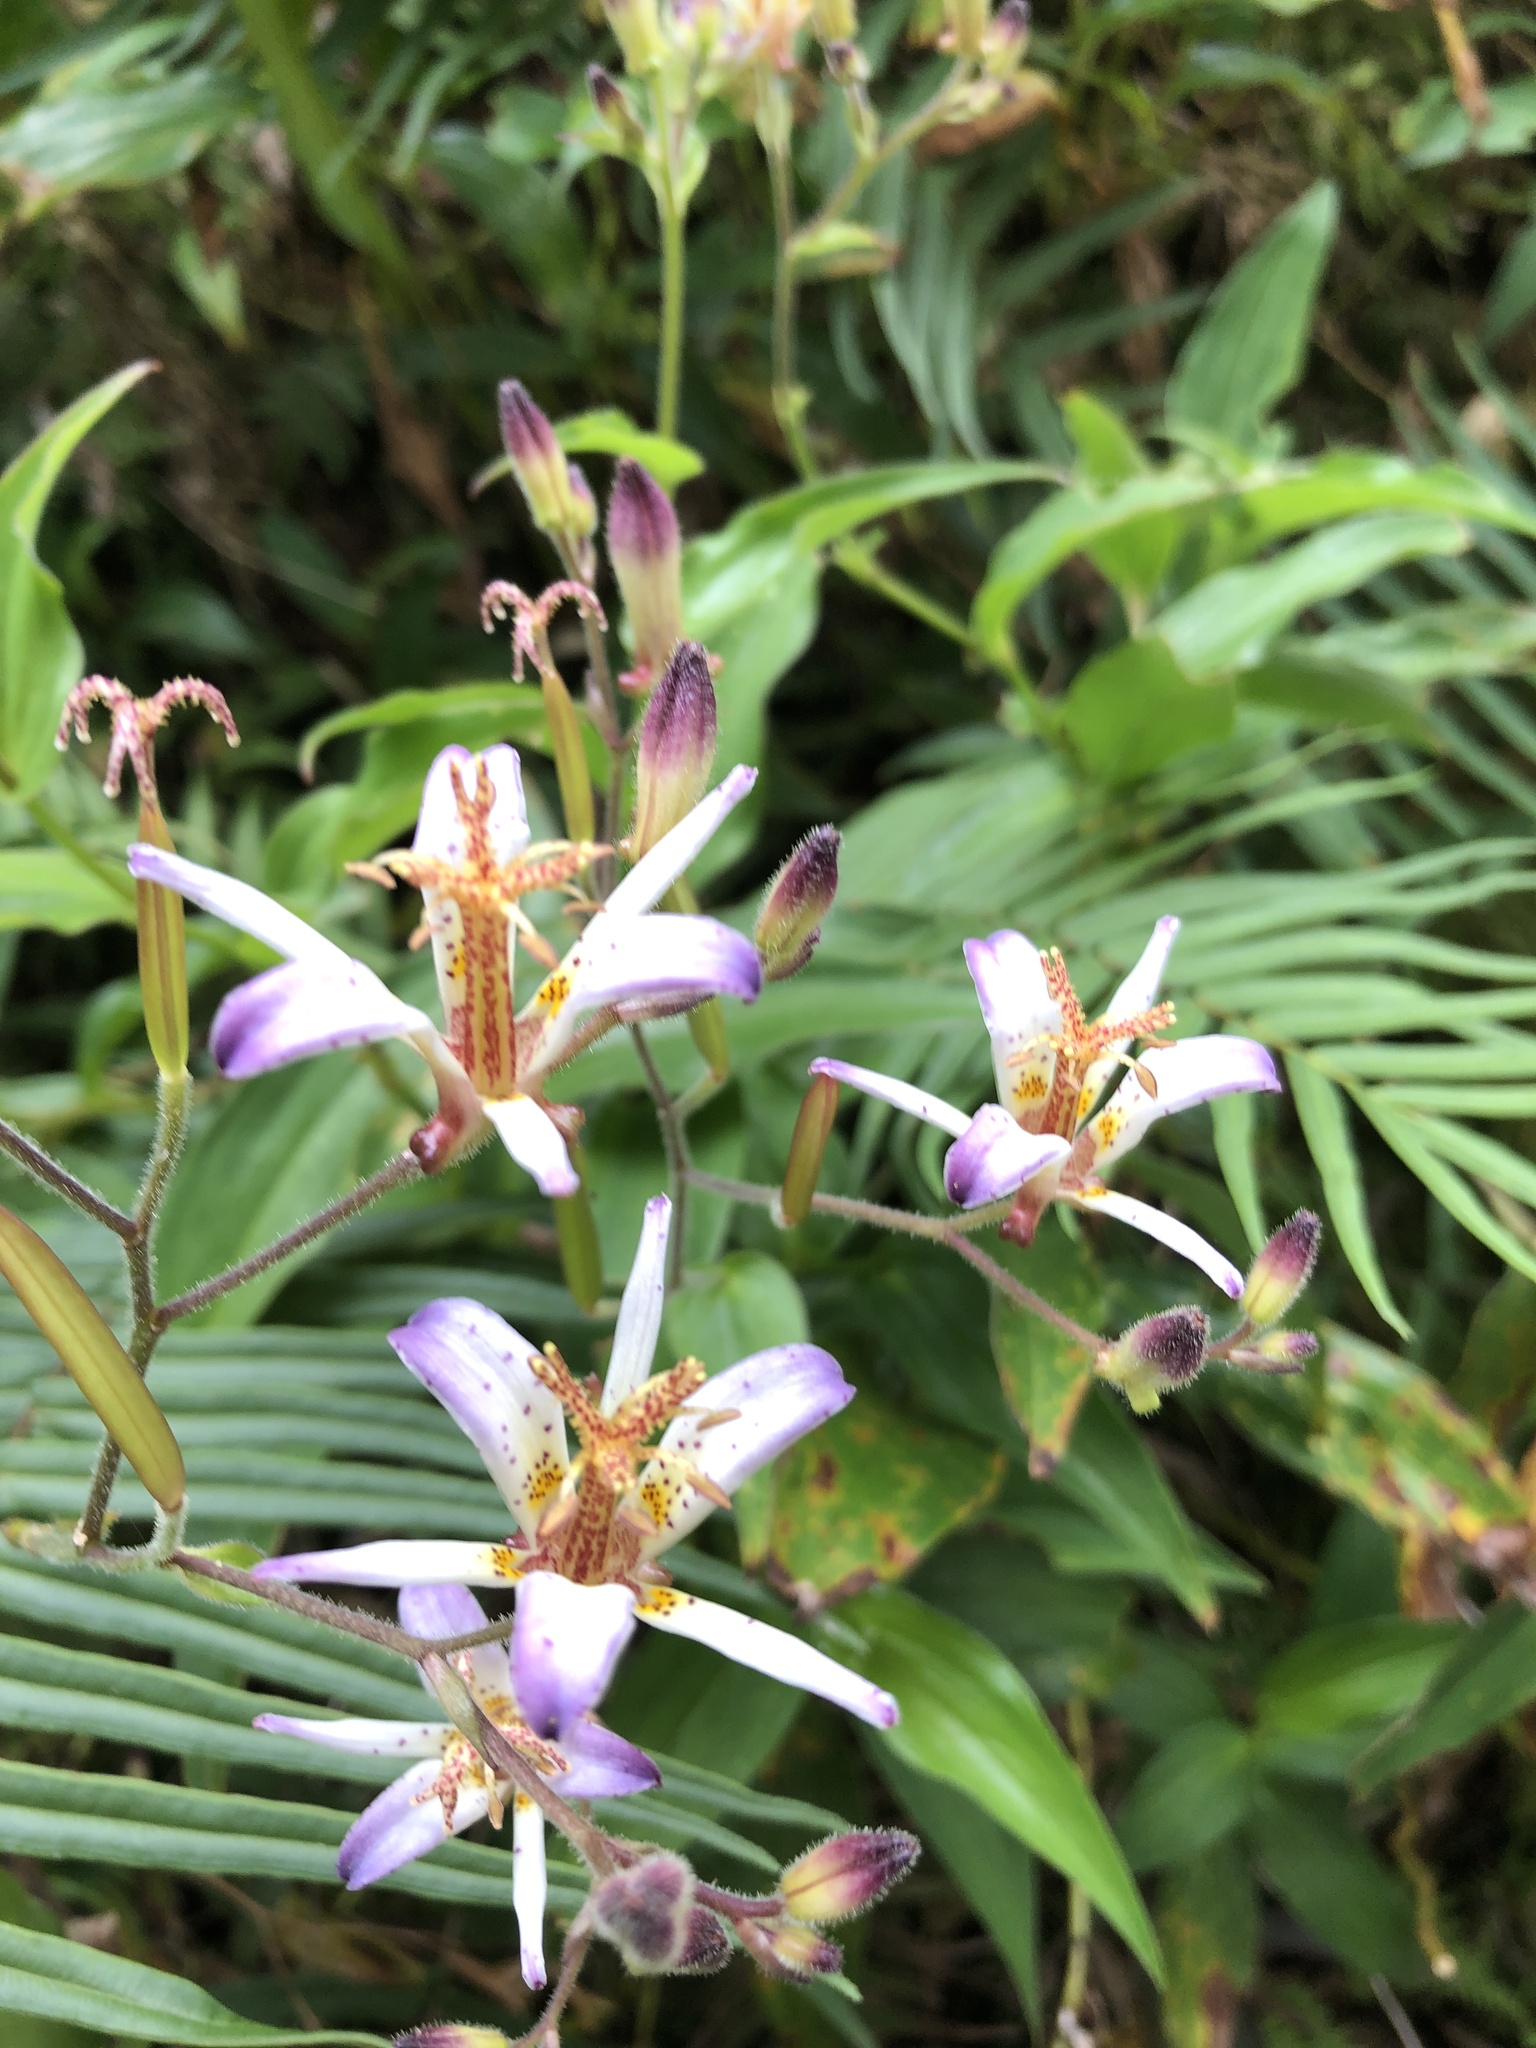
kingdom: Plantae
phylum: Tracheophyta
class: Liliopsida
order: Liliales
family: Liliaceae
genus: Tricyrtis
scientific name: Tricyrtis lasiocarpa
